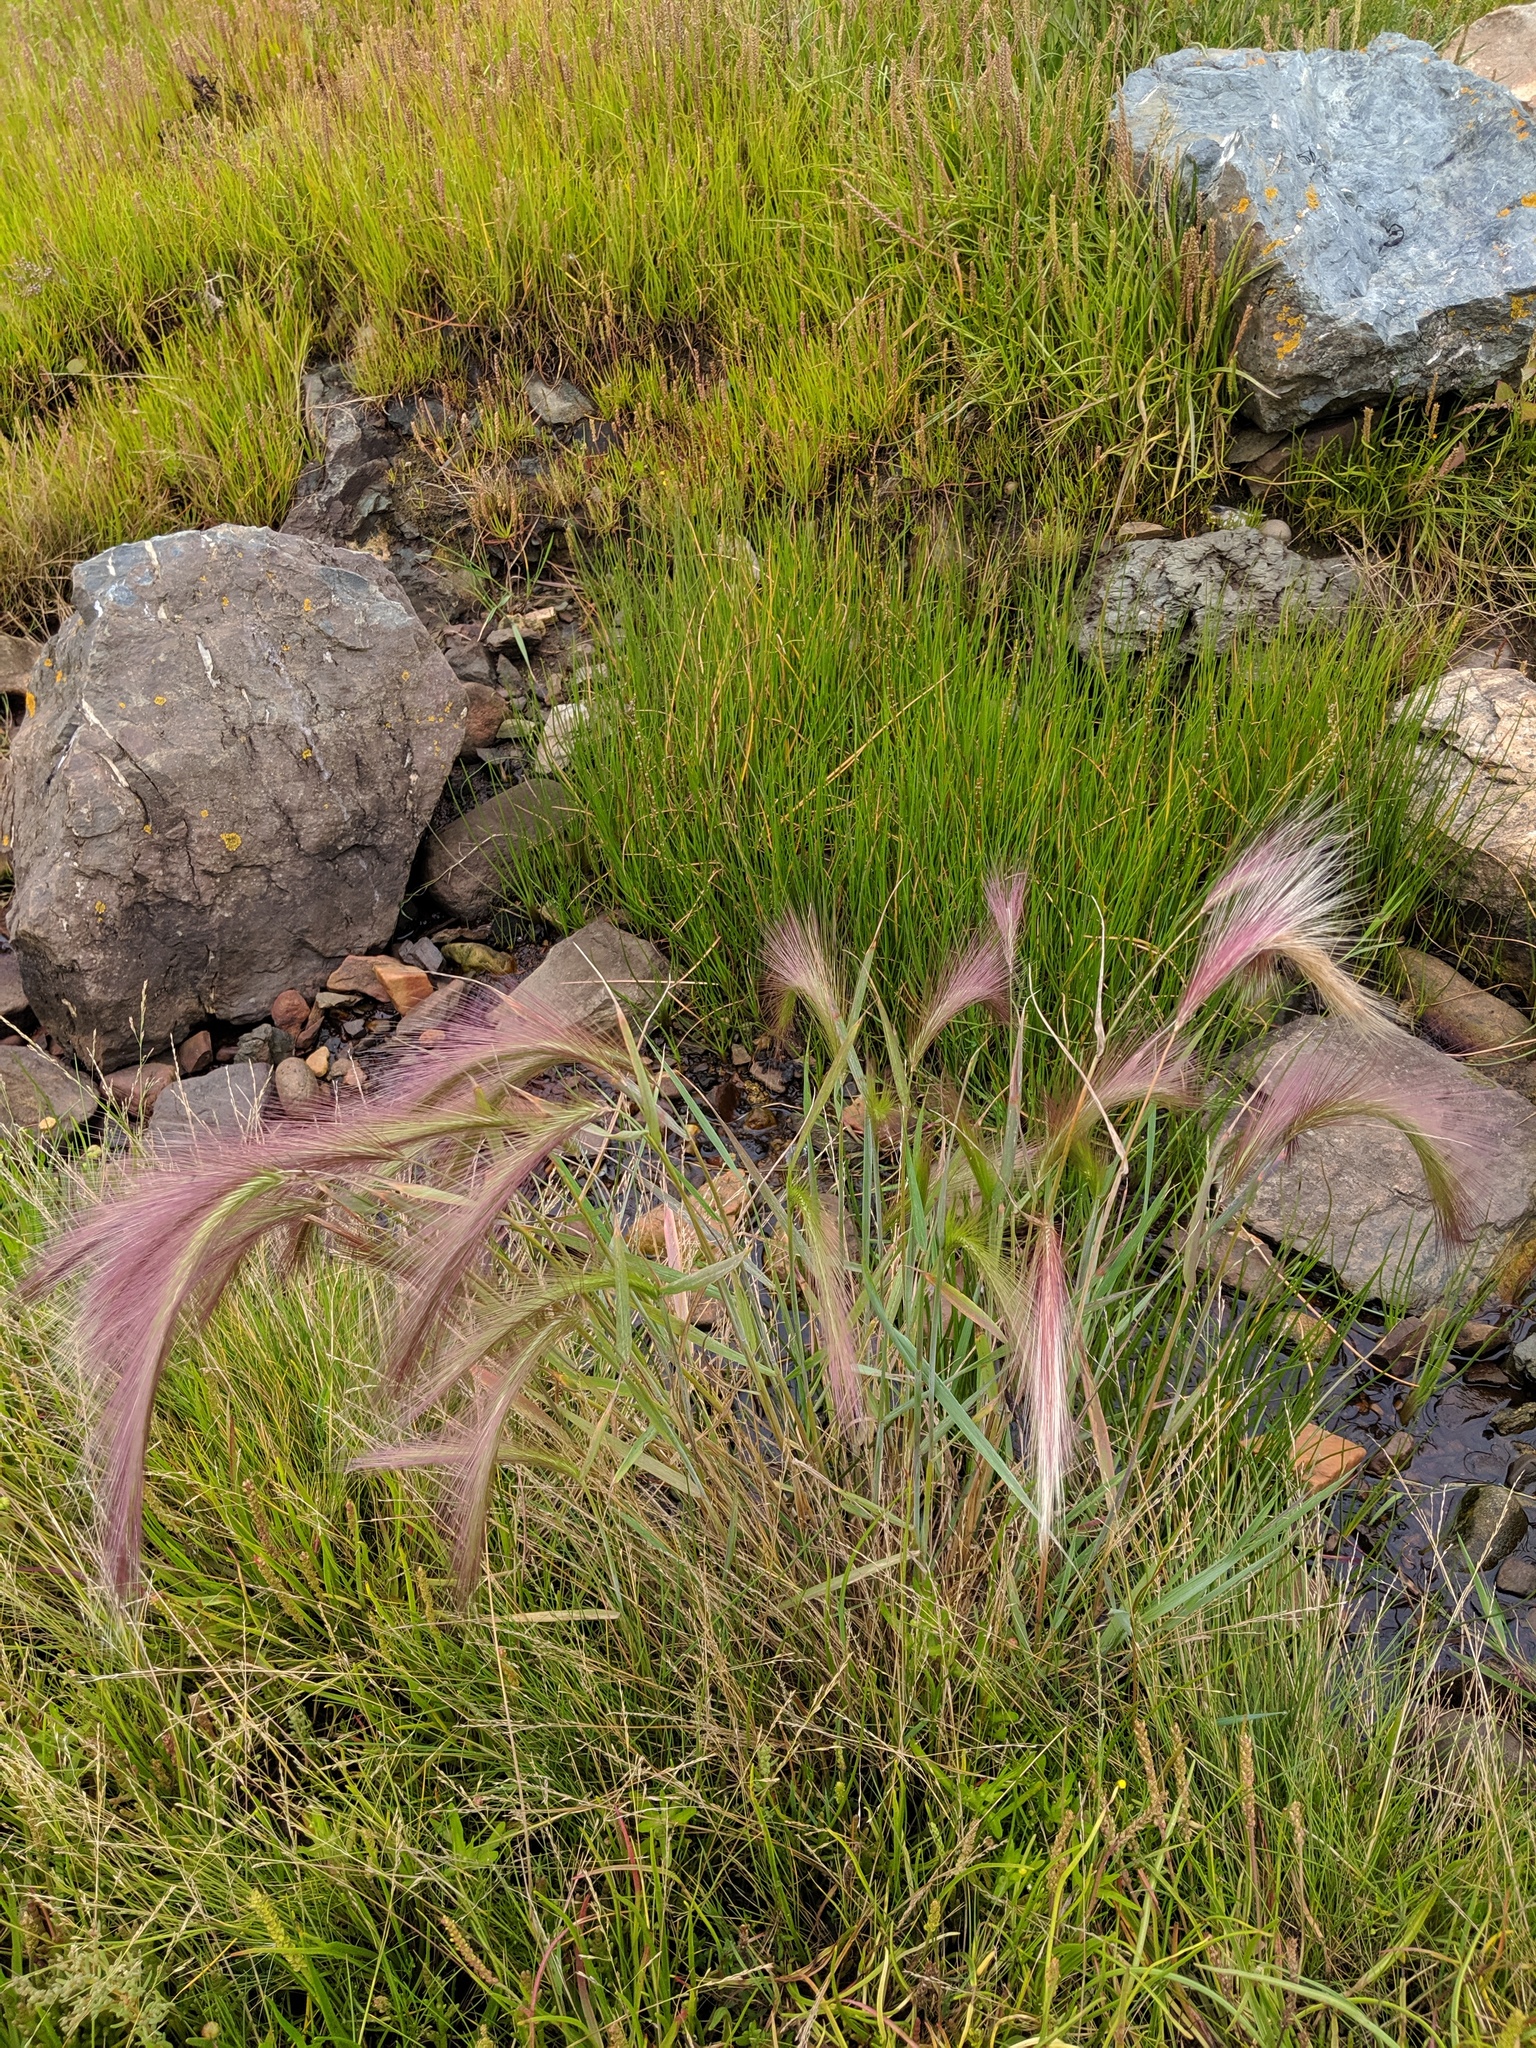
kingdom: Plantae
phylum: Tracheophyta
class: Liliopsida
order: Poales
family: Poaceae
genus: Hordeum
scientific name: Hordeum jubatum
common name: Foxtail barley
